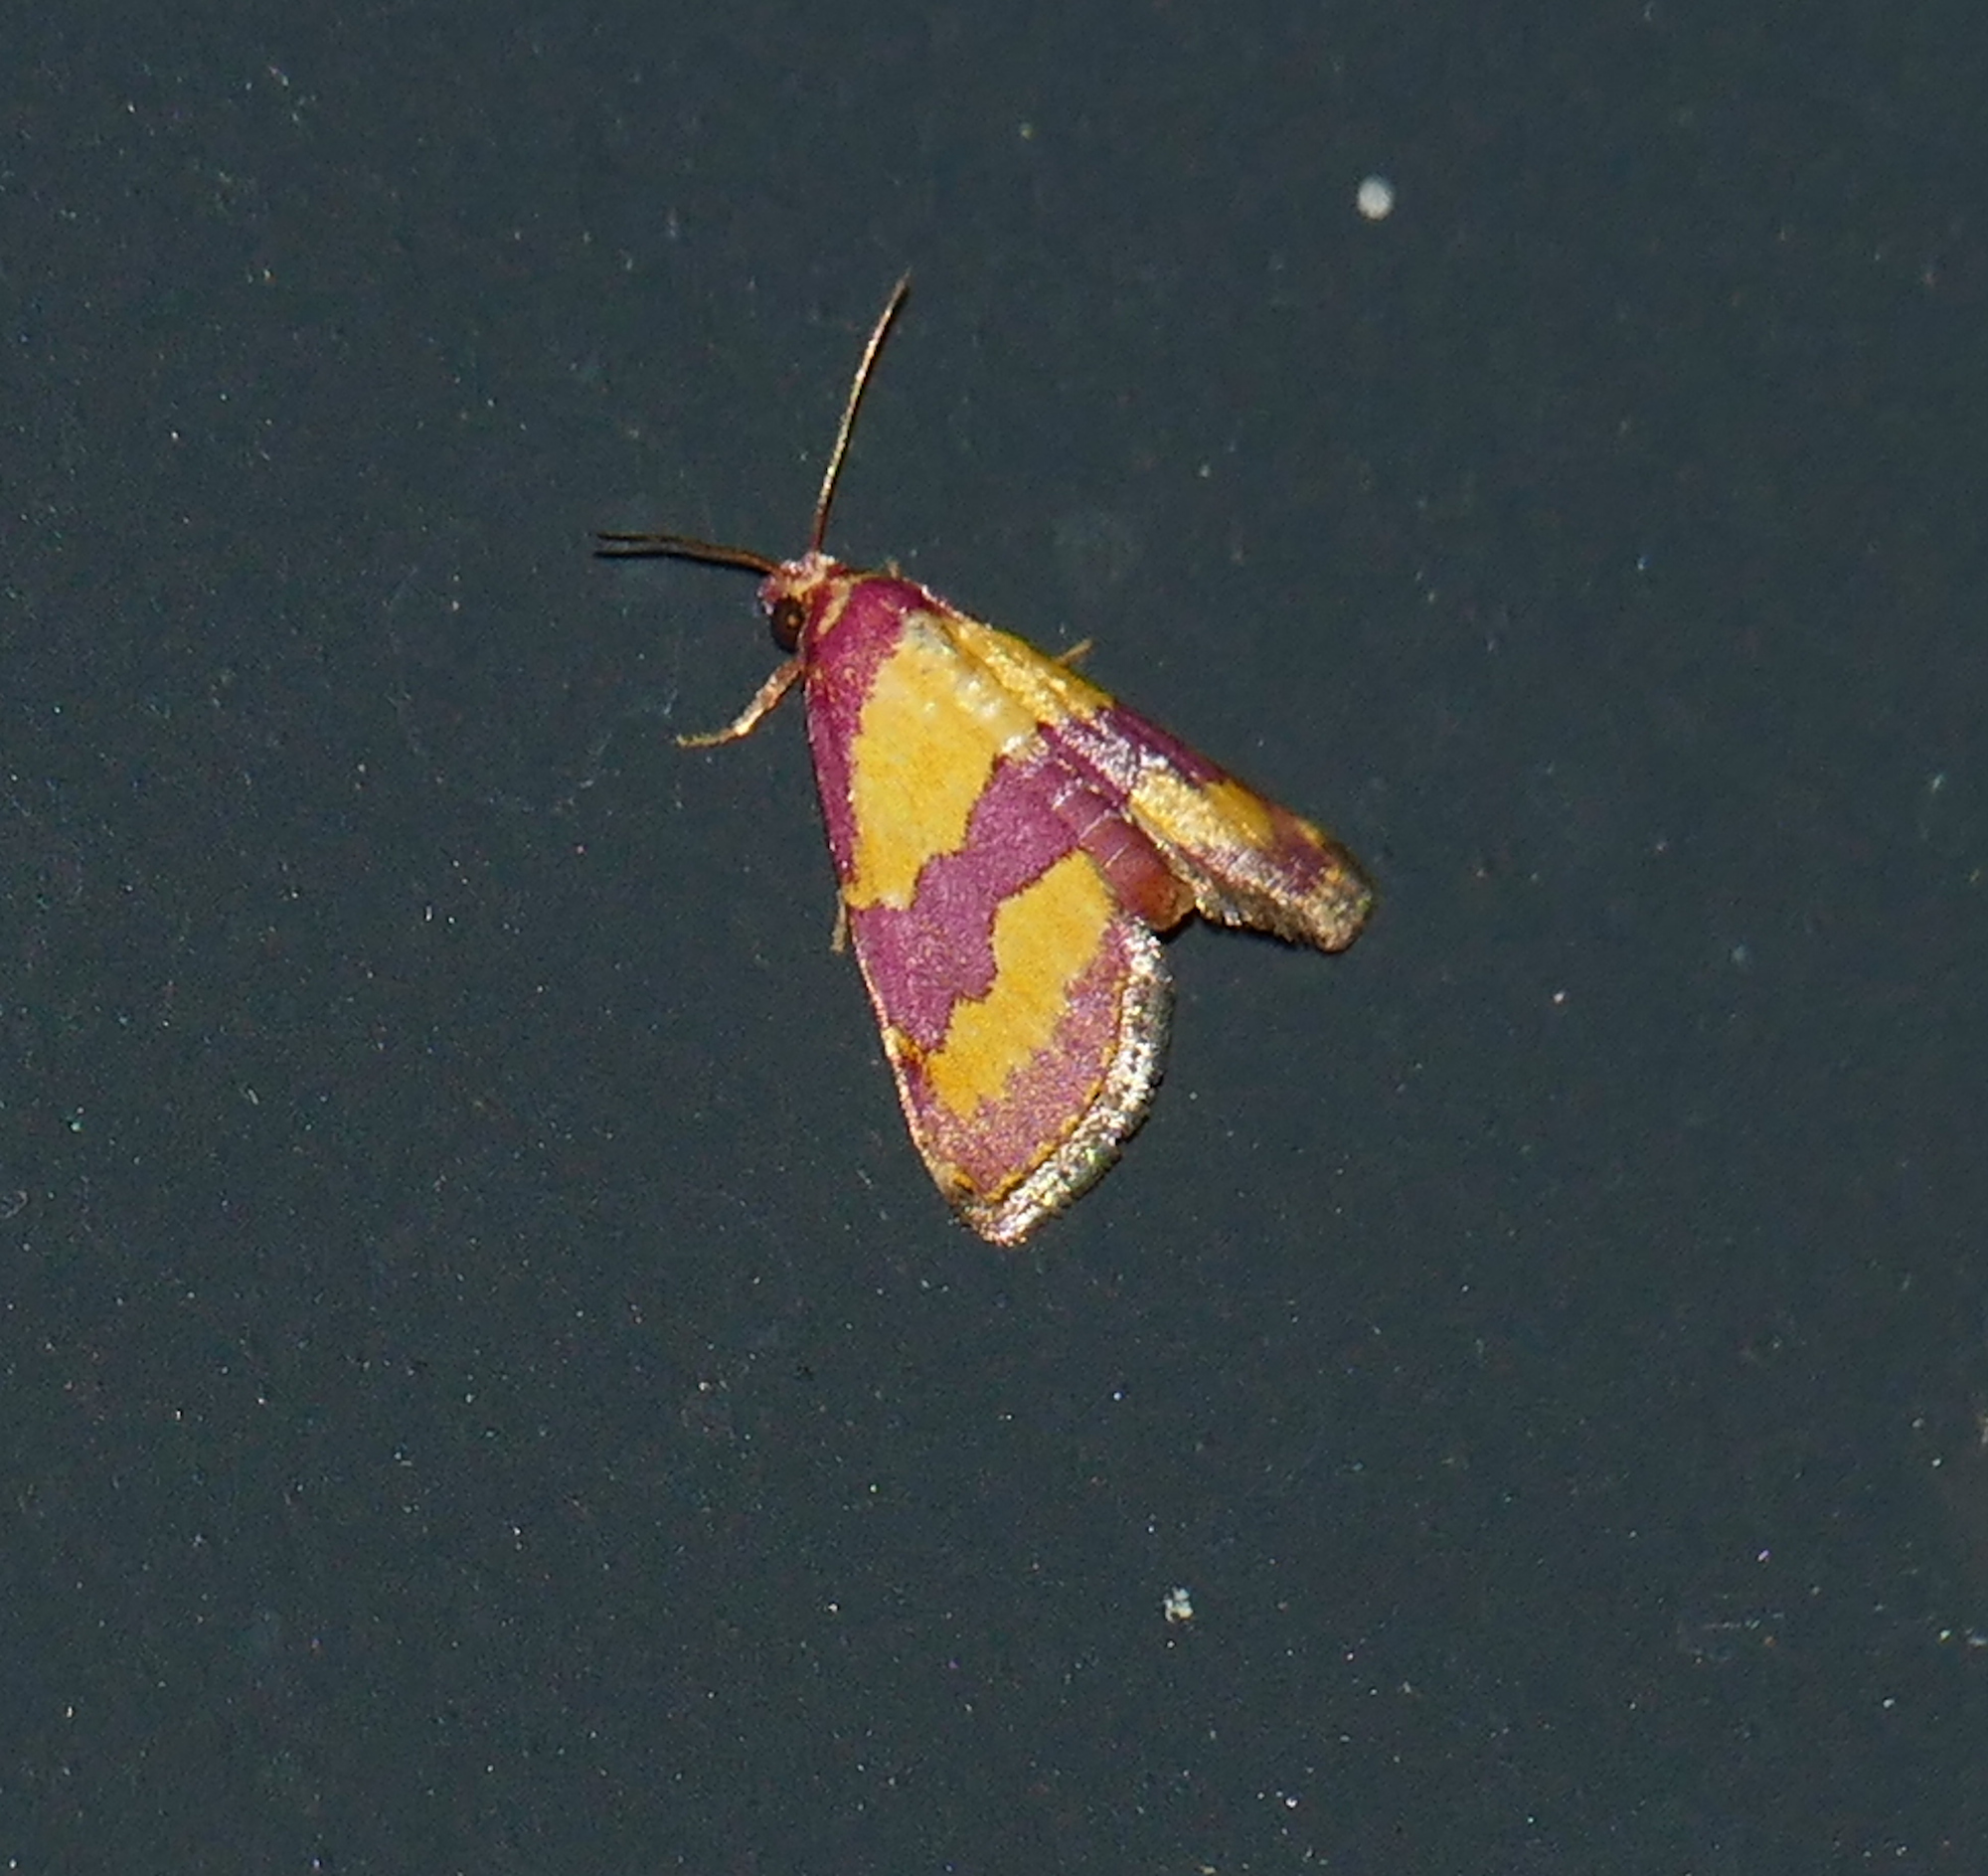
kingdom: Animalia
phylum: Arthropoda
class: Insecta
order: Lepidoptera
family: Noctuidae
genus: Phoenicophanta
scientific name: Phoenicophanta bicolor
